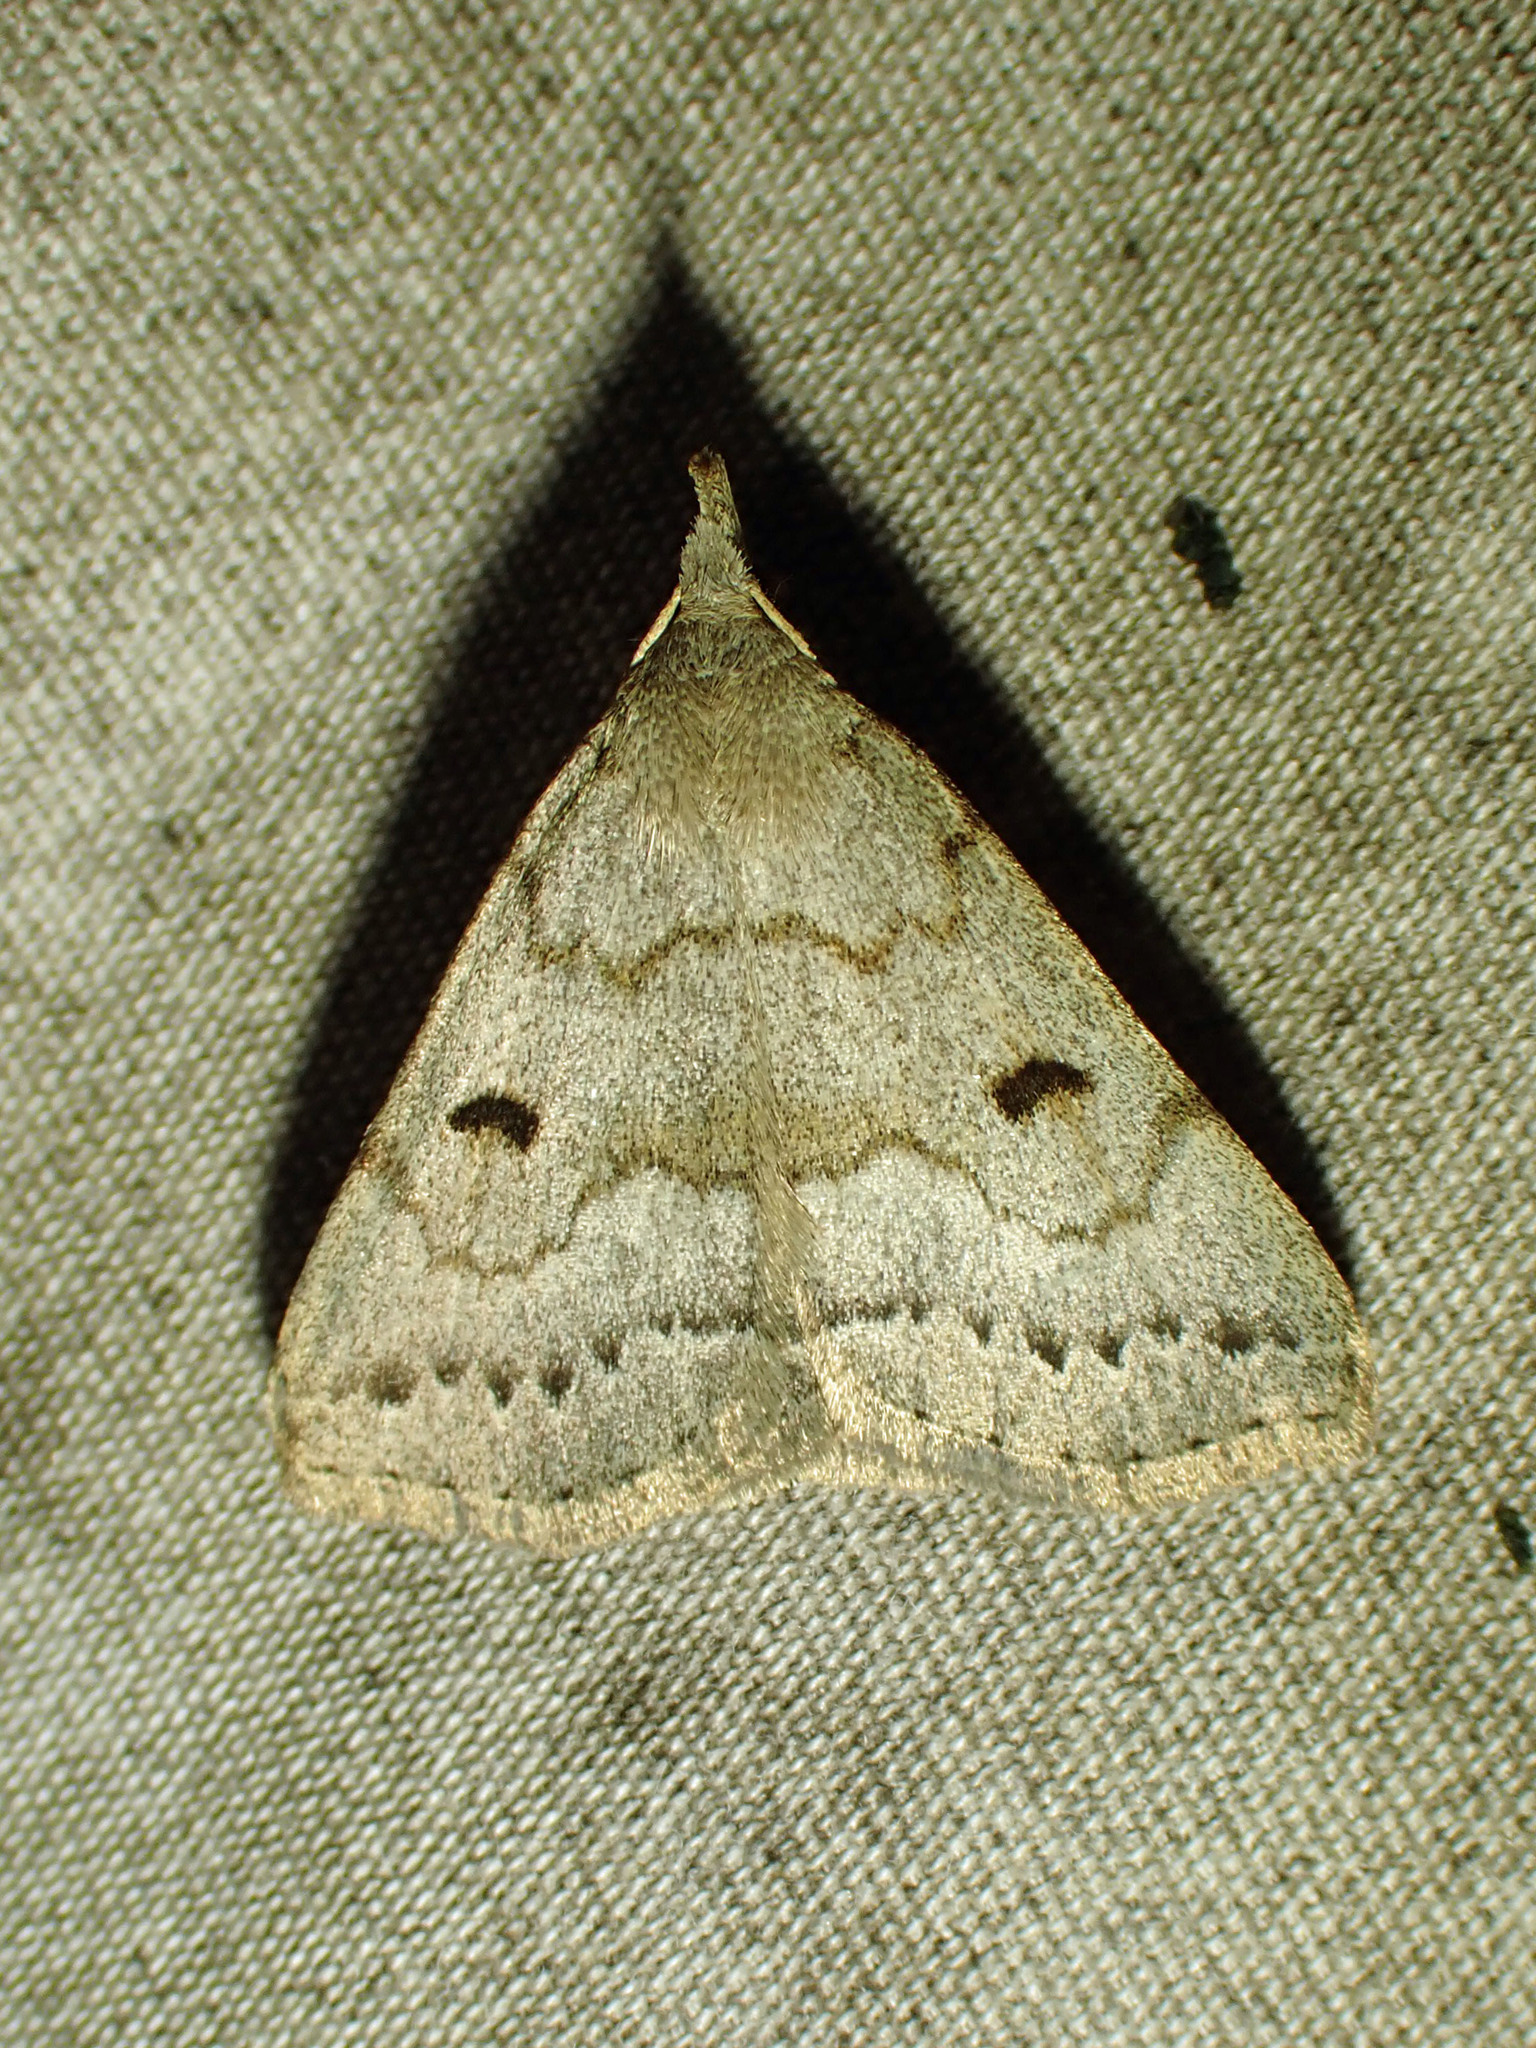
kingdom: Animalia
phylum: Arthropoda
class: Insecta
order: Lepidoptera
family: Erebidae
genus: Macrochilo
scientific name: Macrochilo morbidalis
